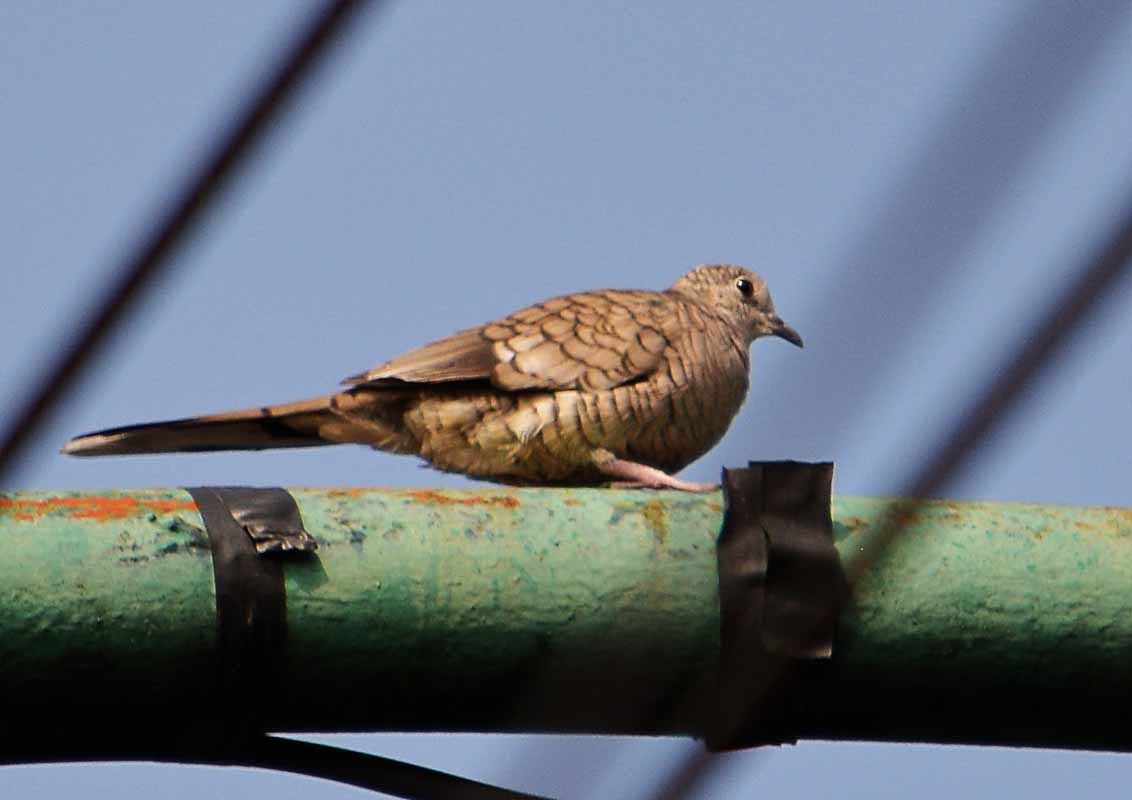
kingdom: Animalia
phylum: Chordata
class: Aves
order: Columbiformes
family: Columbidae
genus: Columbina
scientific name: Columbina inca
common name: Inca dove
